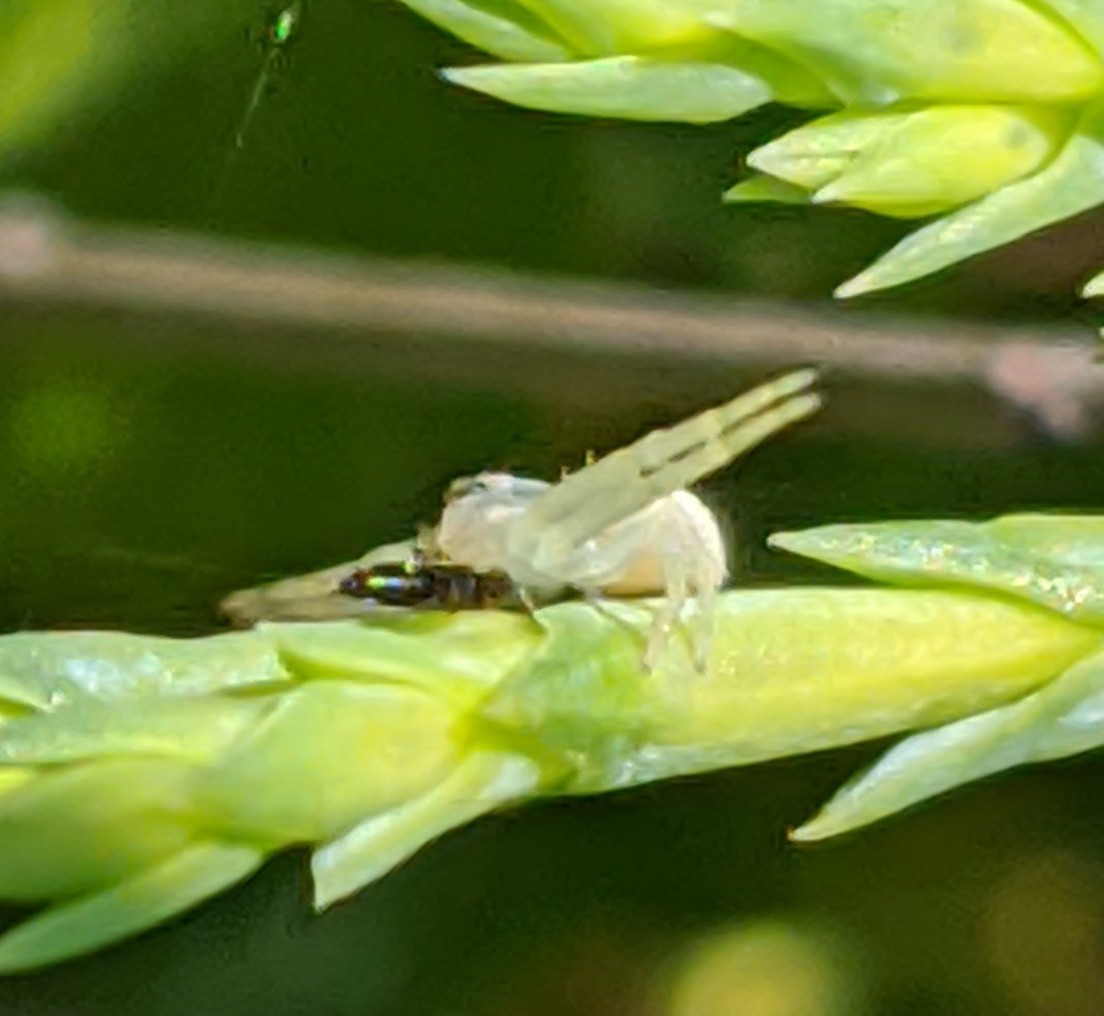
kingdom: Animalia
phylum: Arthropoda
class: Arachnida
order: Araneae
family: Thomisidae
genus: Misumena
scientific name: Misumena vatia
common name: Goldenrod crab spider
